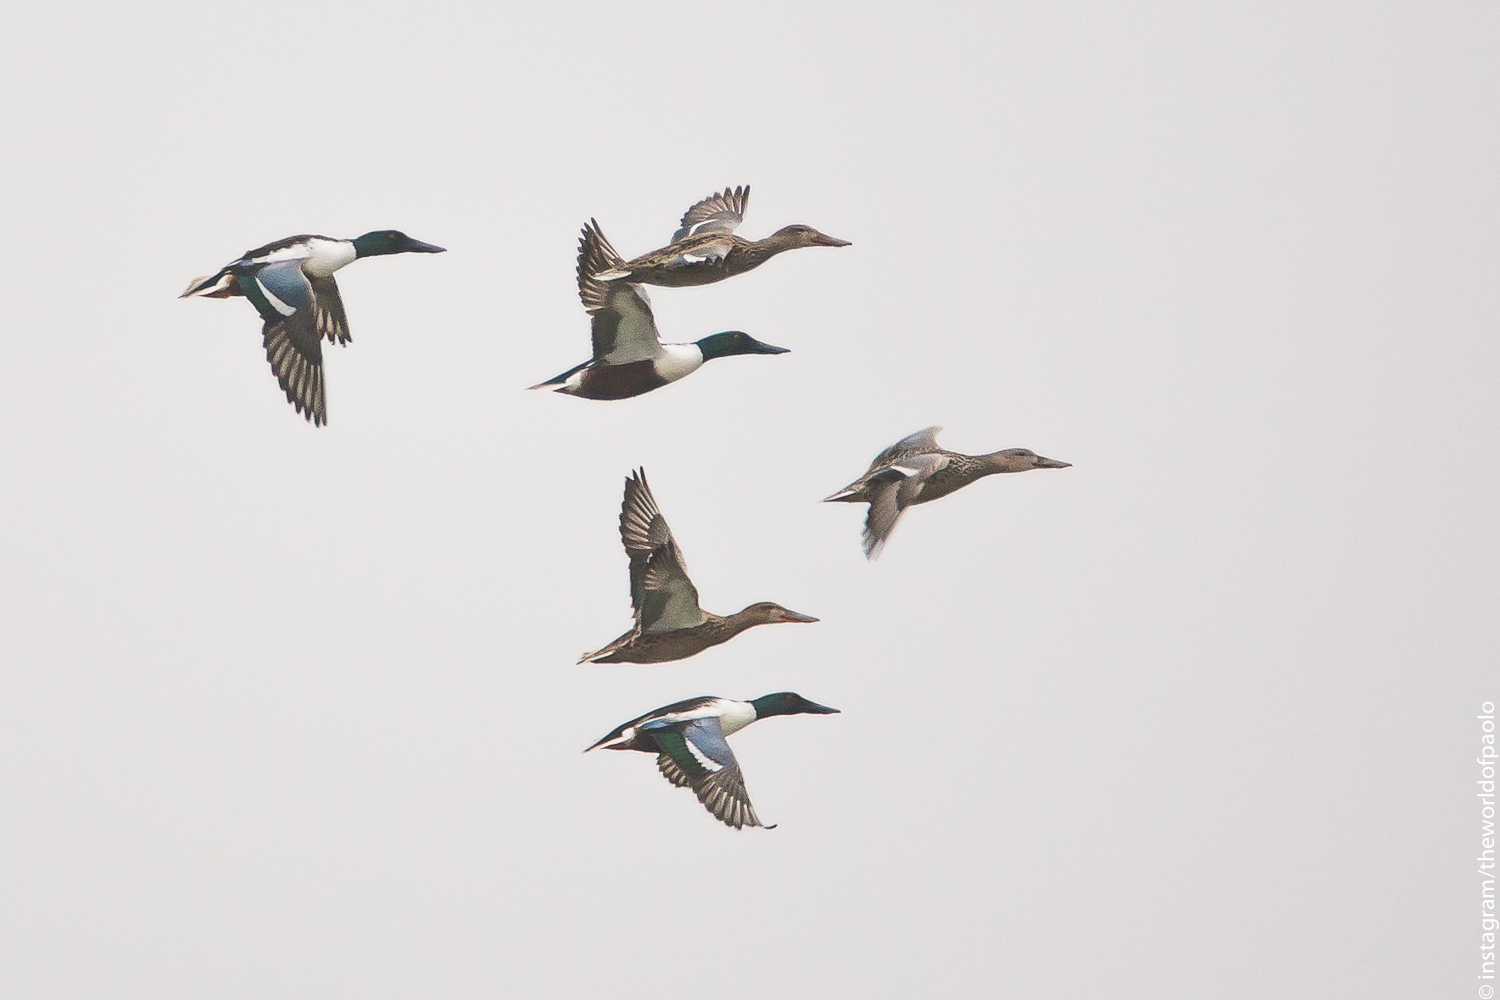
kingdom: Animalia
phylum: Chordata
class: Aves
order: Anseriformes
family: Anatidae
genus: Spatula
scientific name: Spatula clypeata
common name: Northern shoveler
